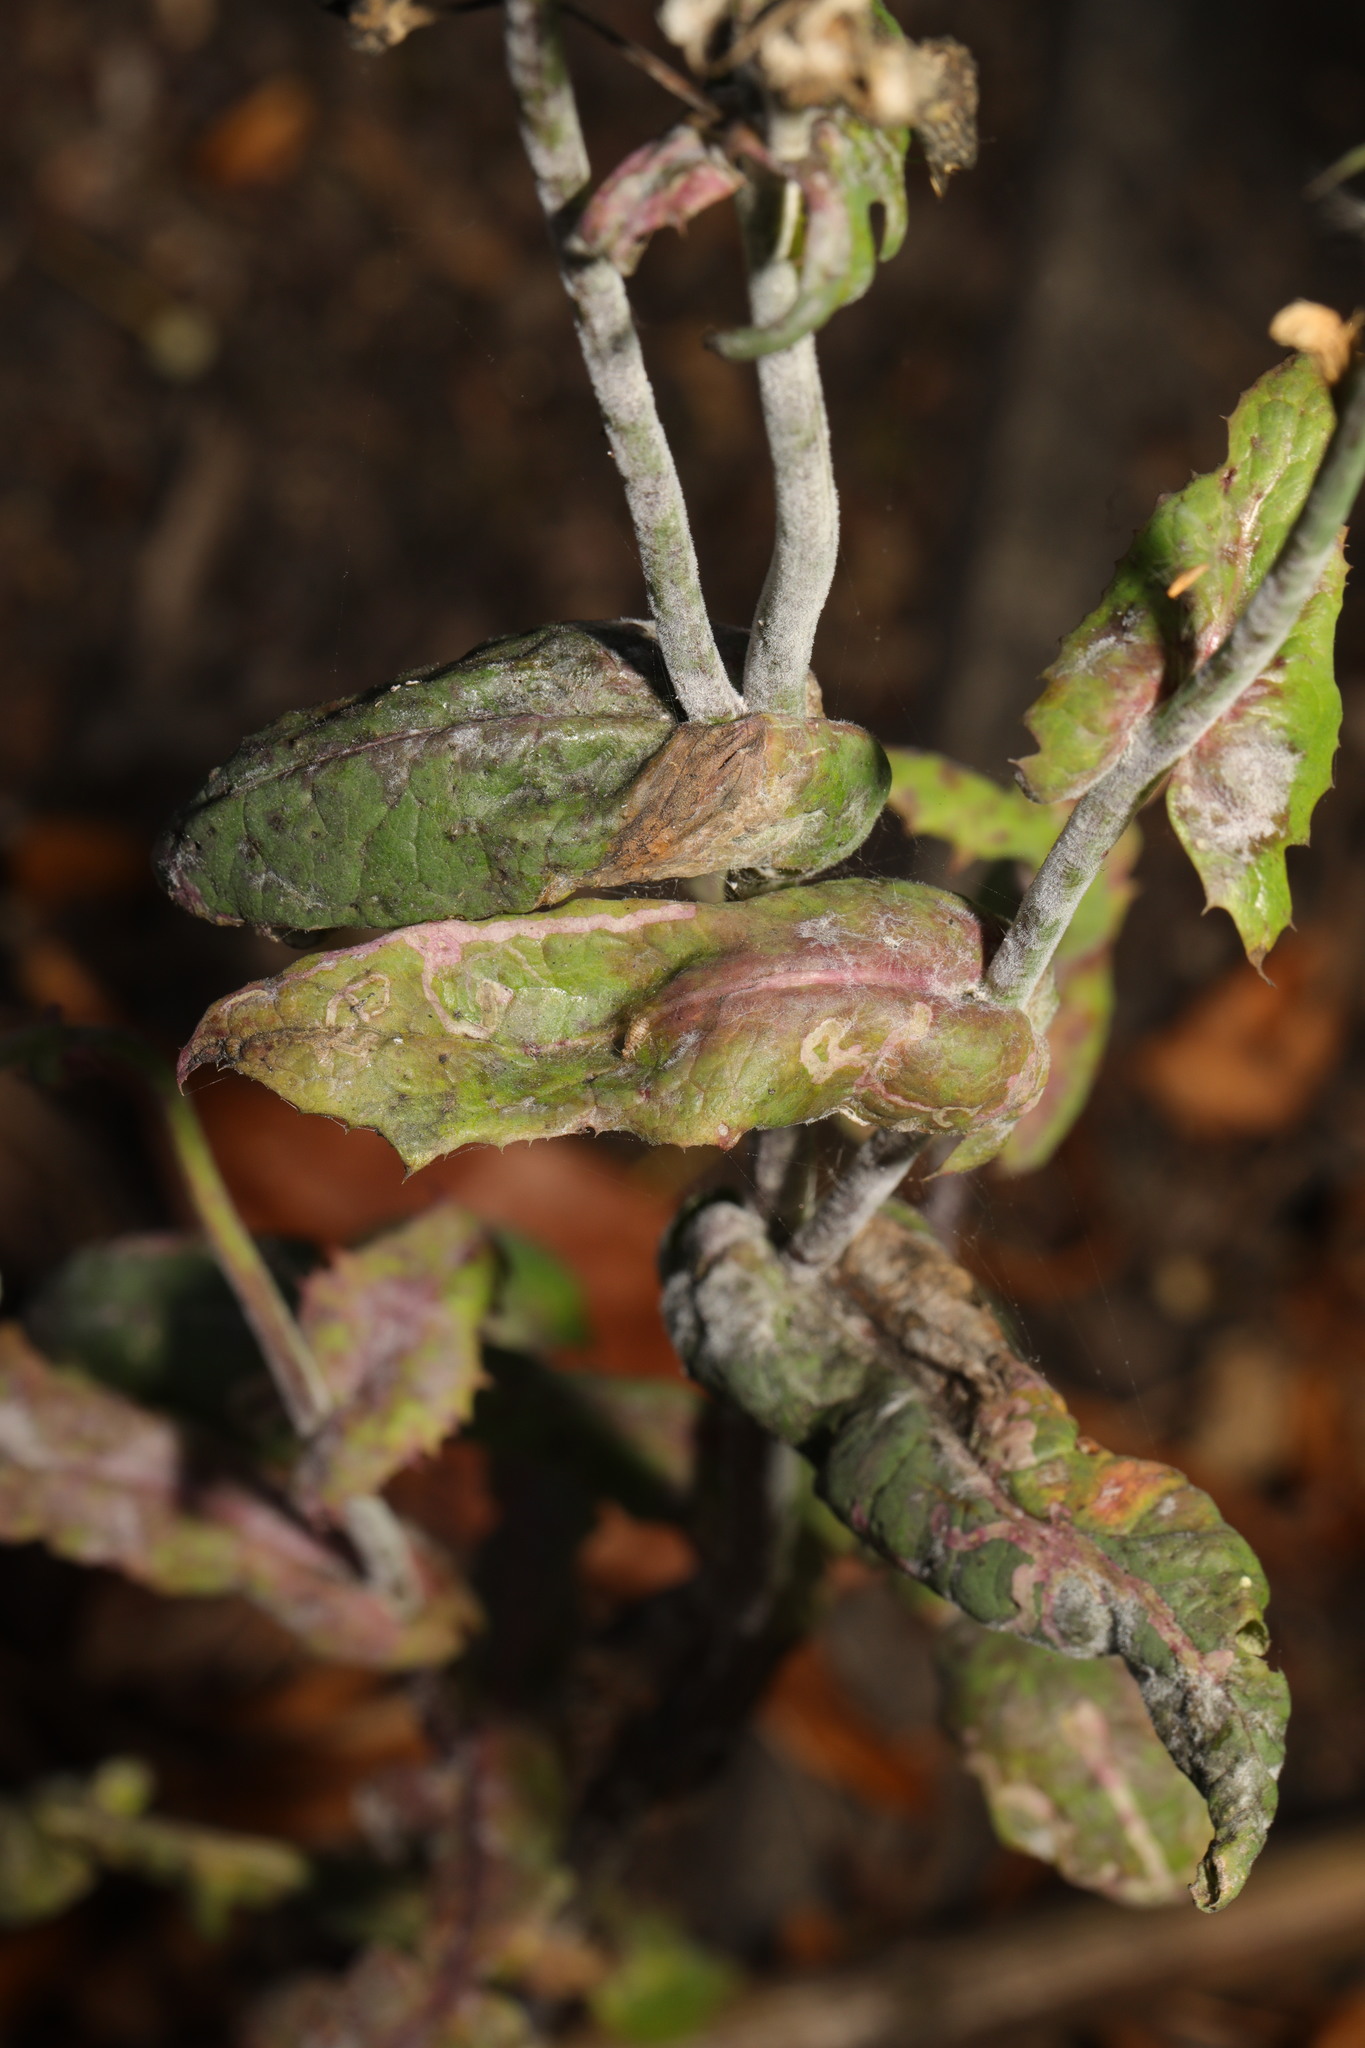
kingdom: Fungi
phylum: Ascomycota
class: Leotiomycetes
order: Helotiales
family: Erysiphaceae
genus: Golovinomyces
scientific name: Golovinomyces sonchicola
